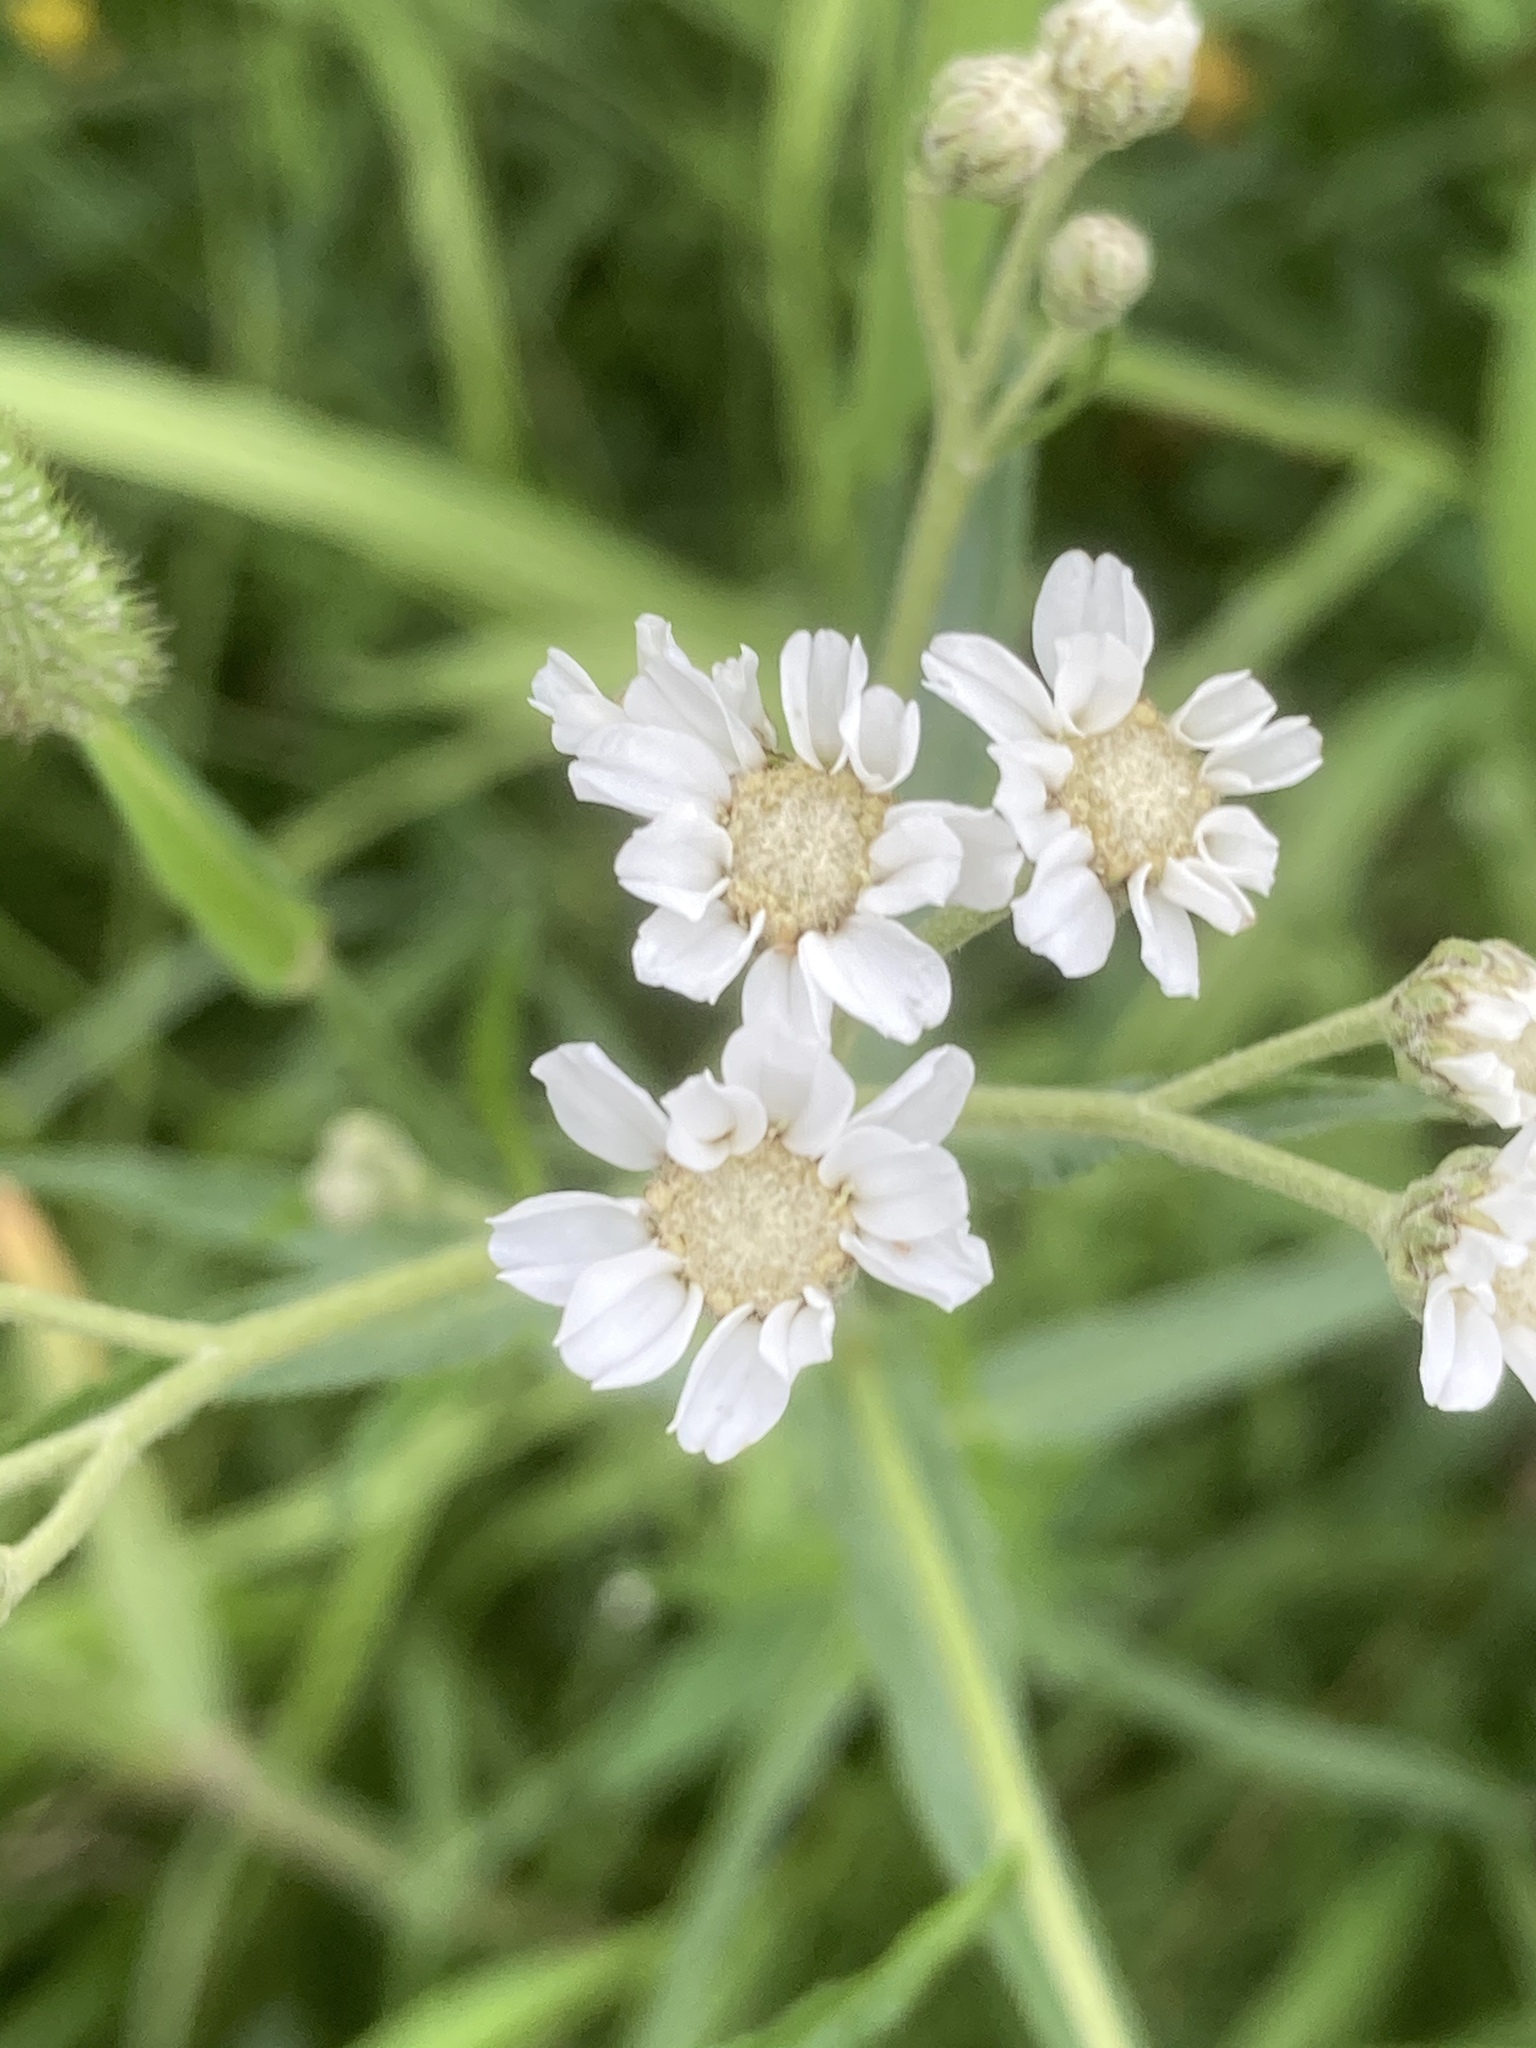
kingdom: Plantae
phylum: Tracheophyta
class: Magnoliopsida
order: Asterales
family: Asteraceae
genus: Achillea
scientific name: Achillea ptarmica
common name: Sneezeweed
